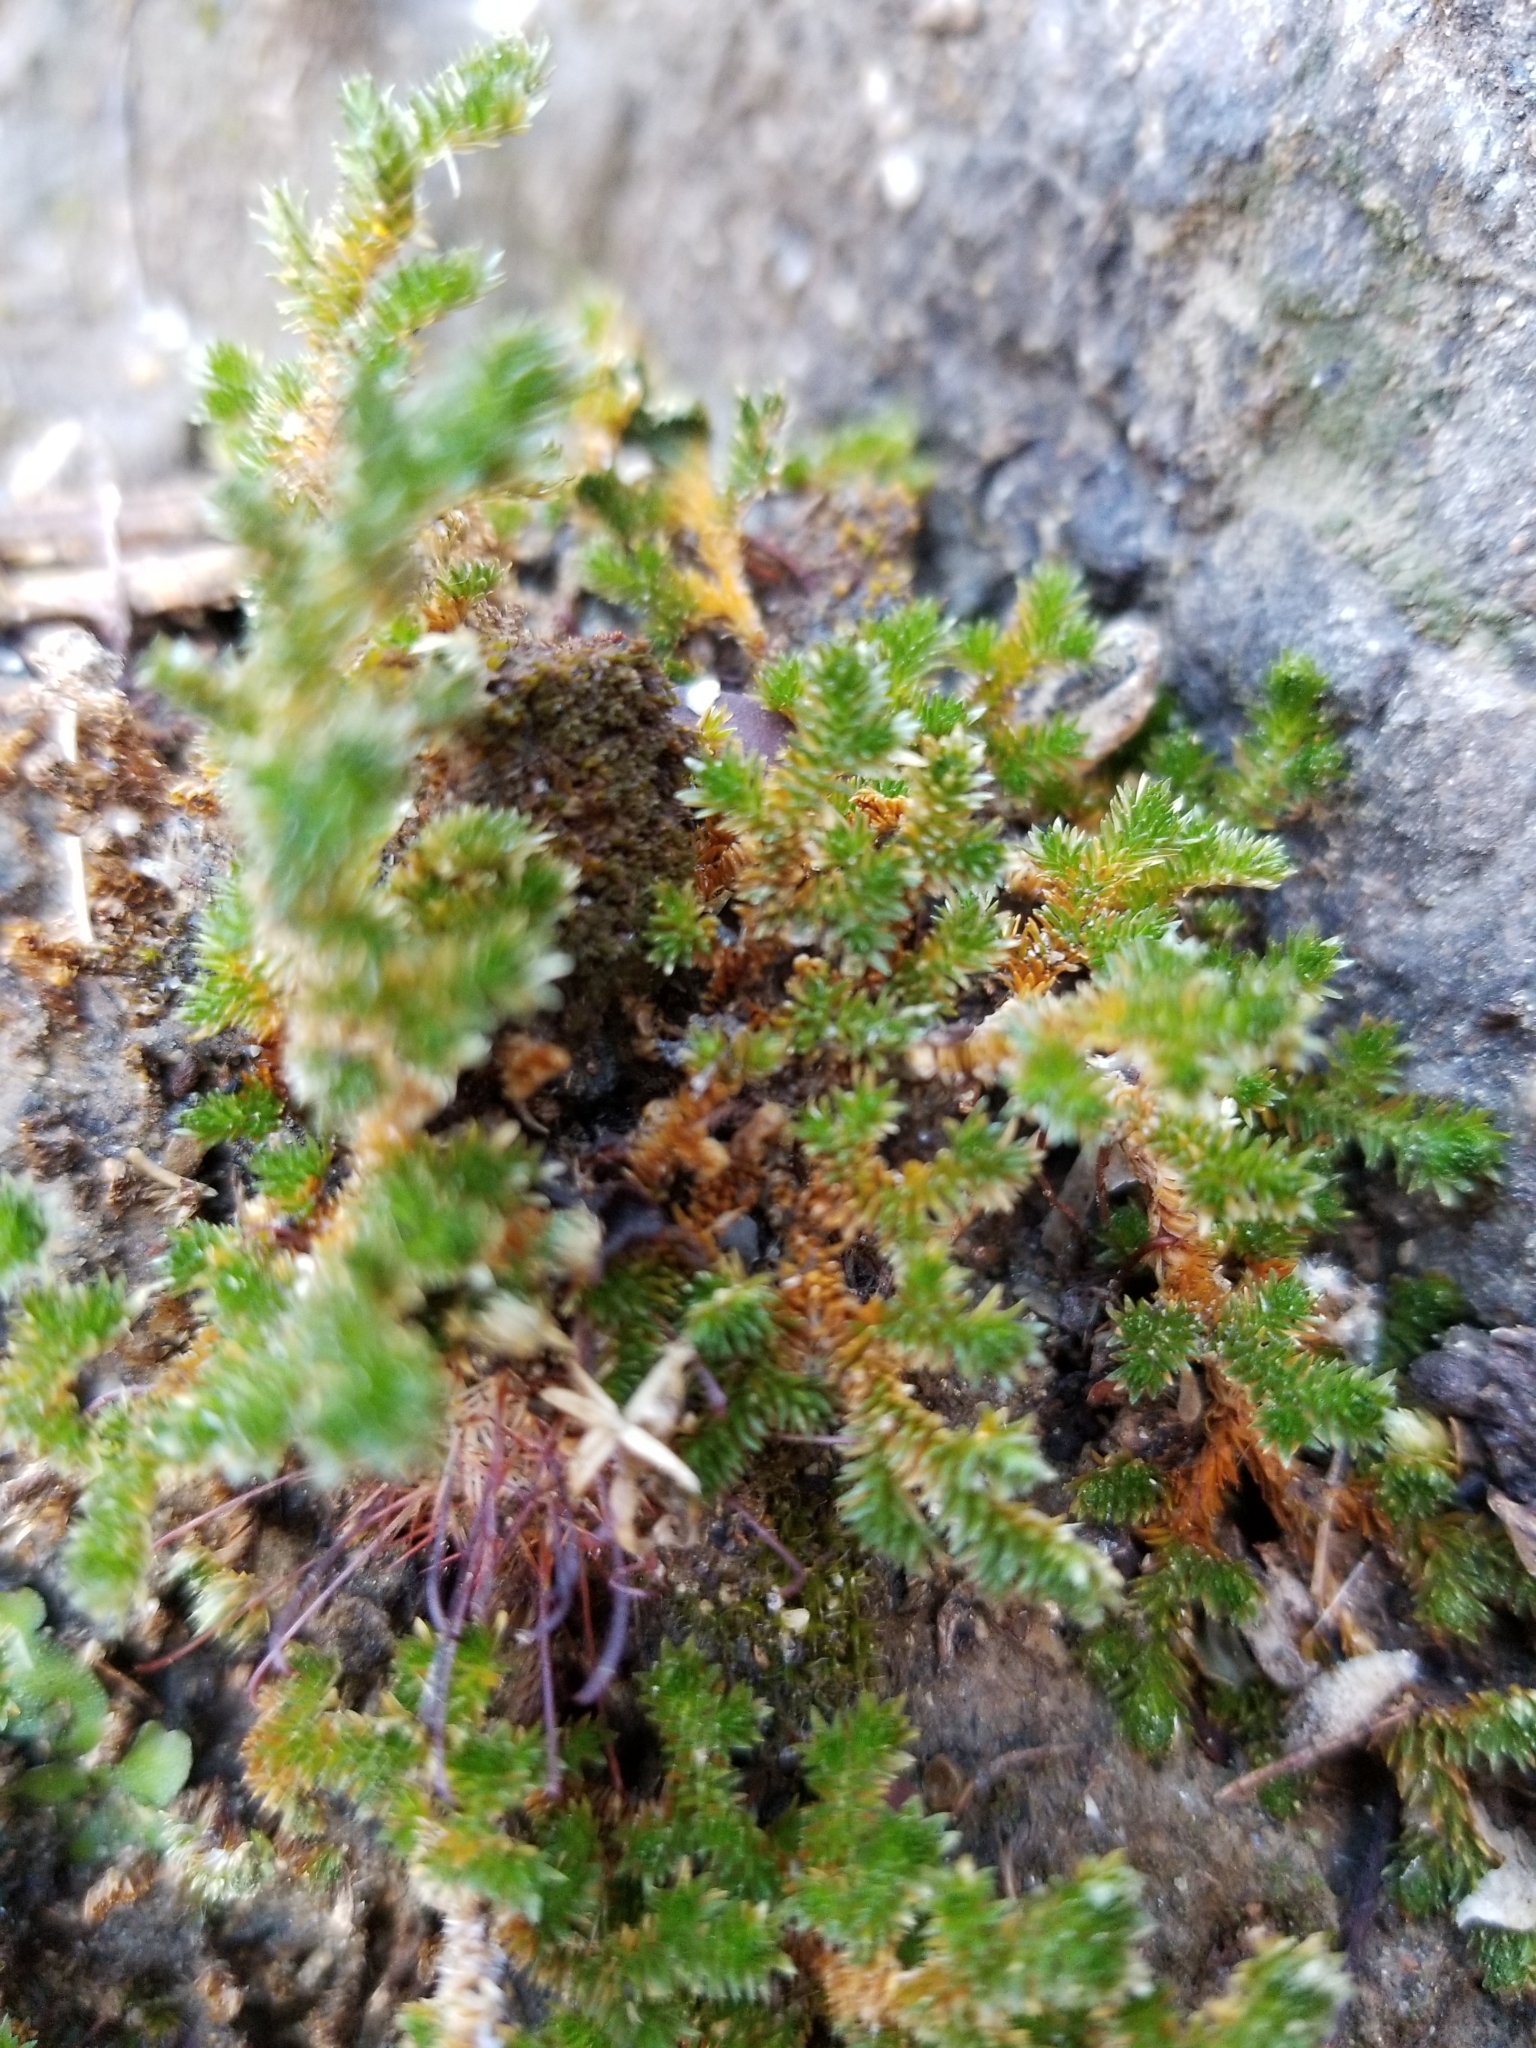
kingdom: Plantae
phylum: Tracheophyta
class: Lycopodiopsida
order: Selaginellales
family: Selaginellaceae
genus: Selaginella
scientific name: Selaginella eremophila
